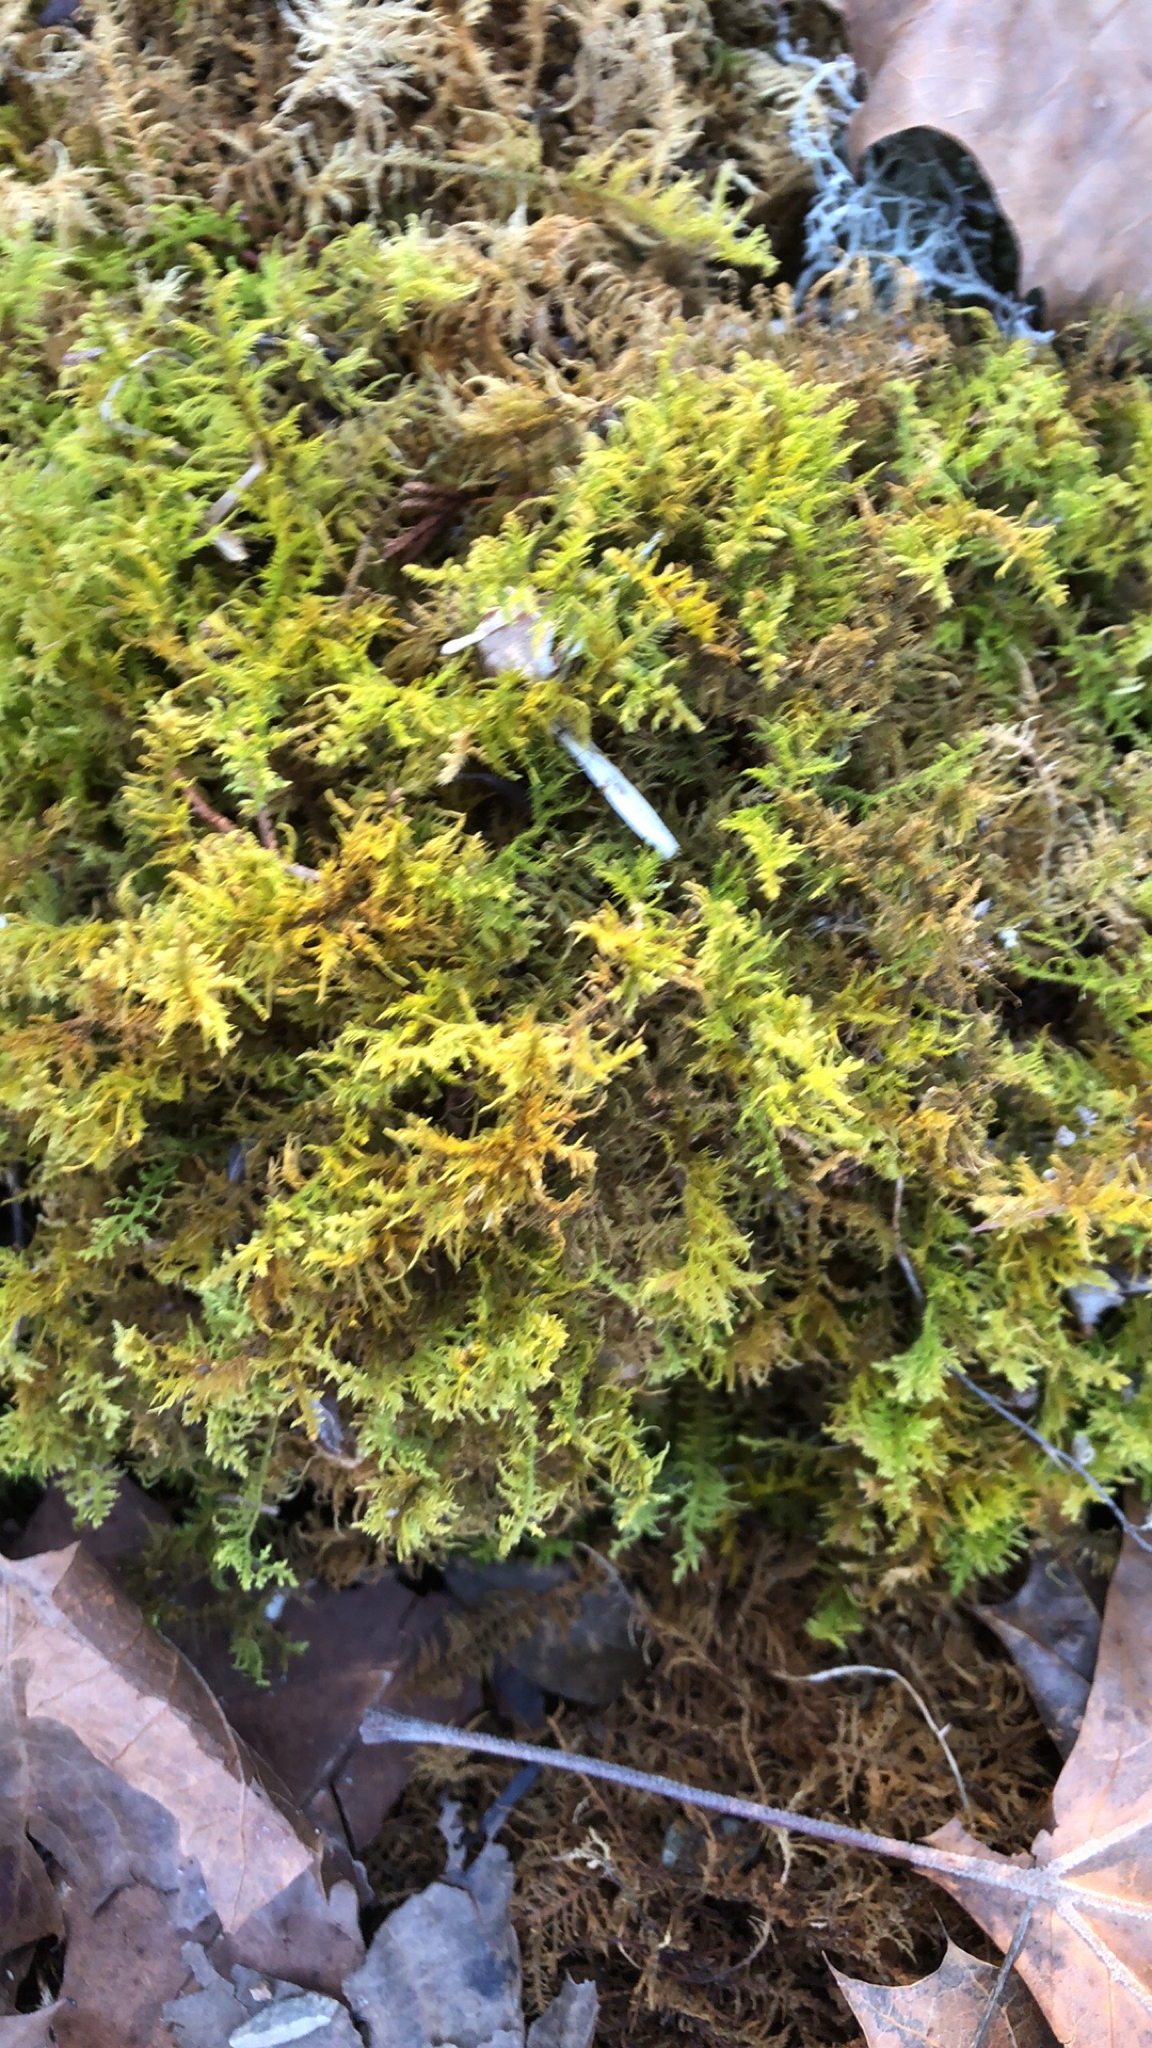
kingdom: Plantae
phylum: Bryophyta
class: Bryopsida
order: Hypnales
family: Thuidiaceae
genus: Thuidium
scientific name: Thuidium delicatulum
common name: Delicate fern moss
